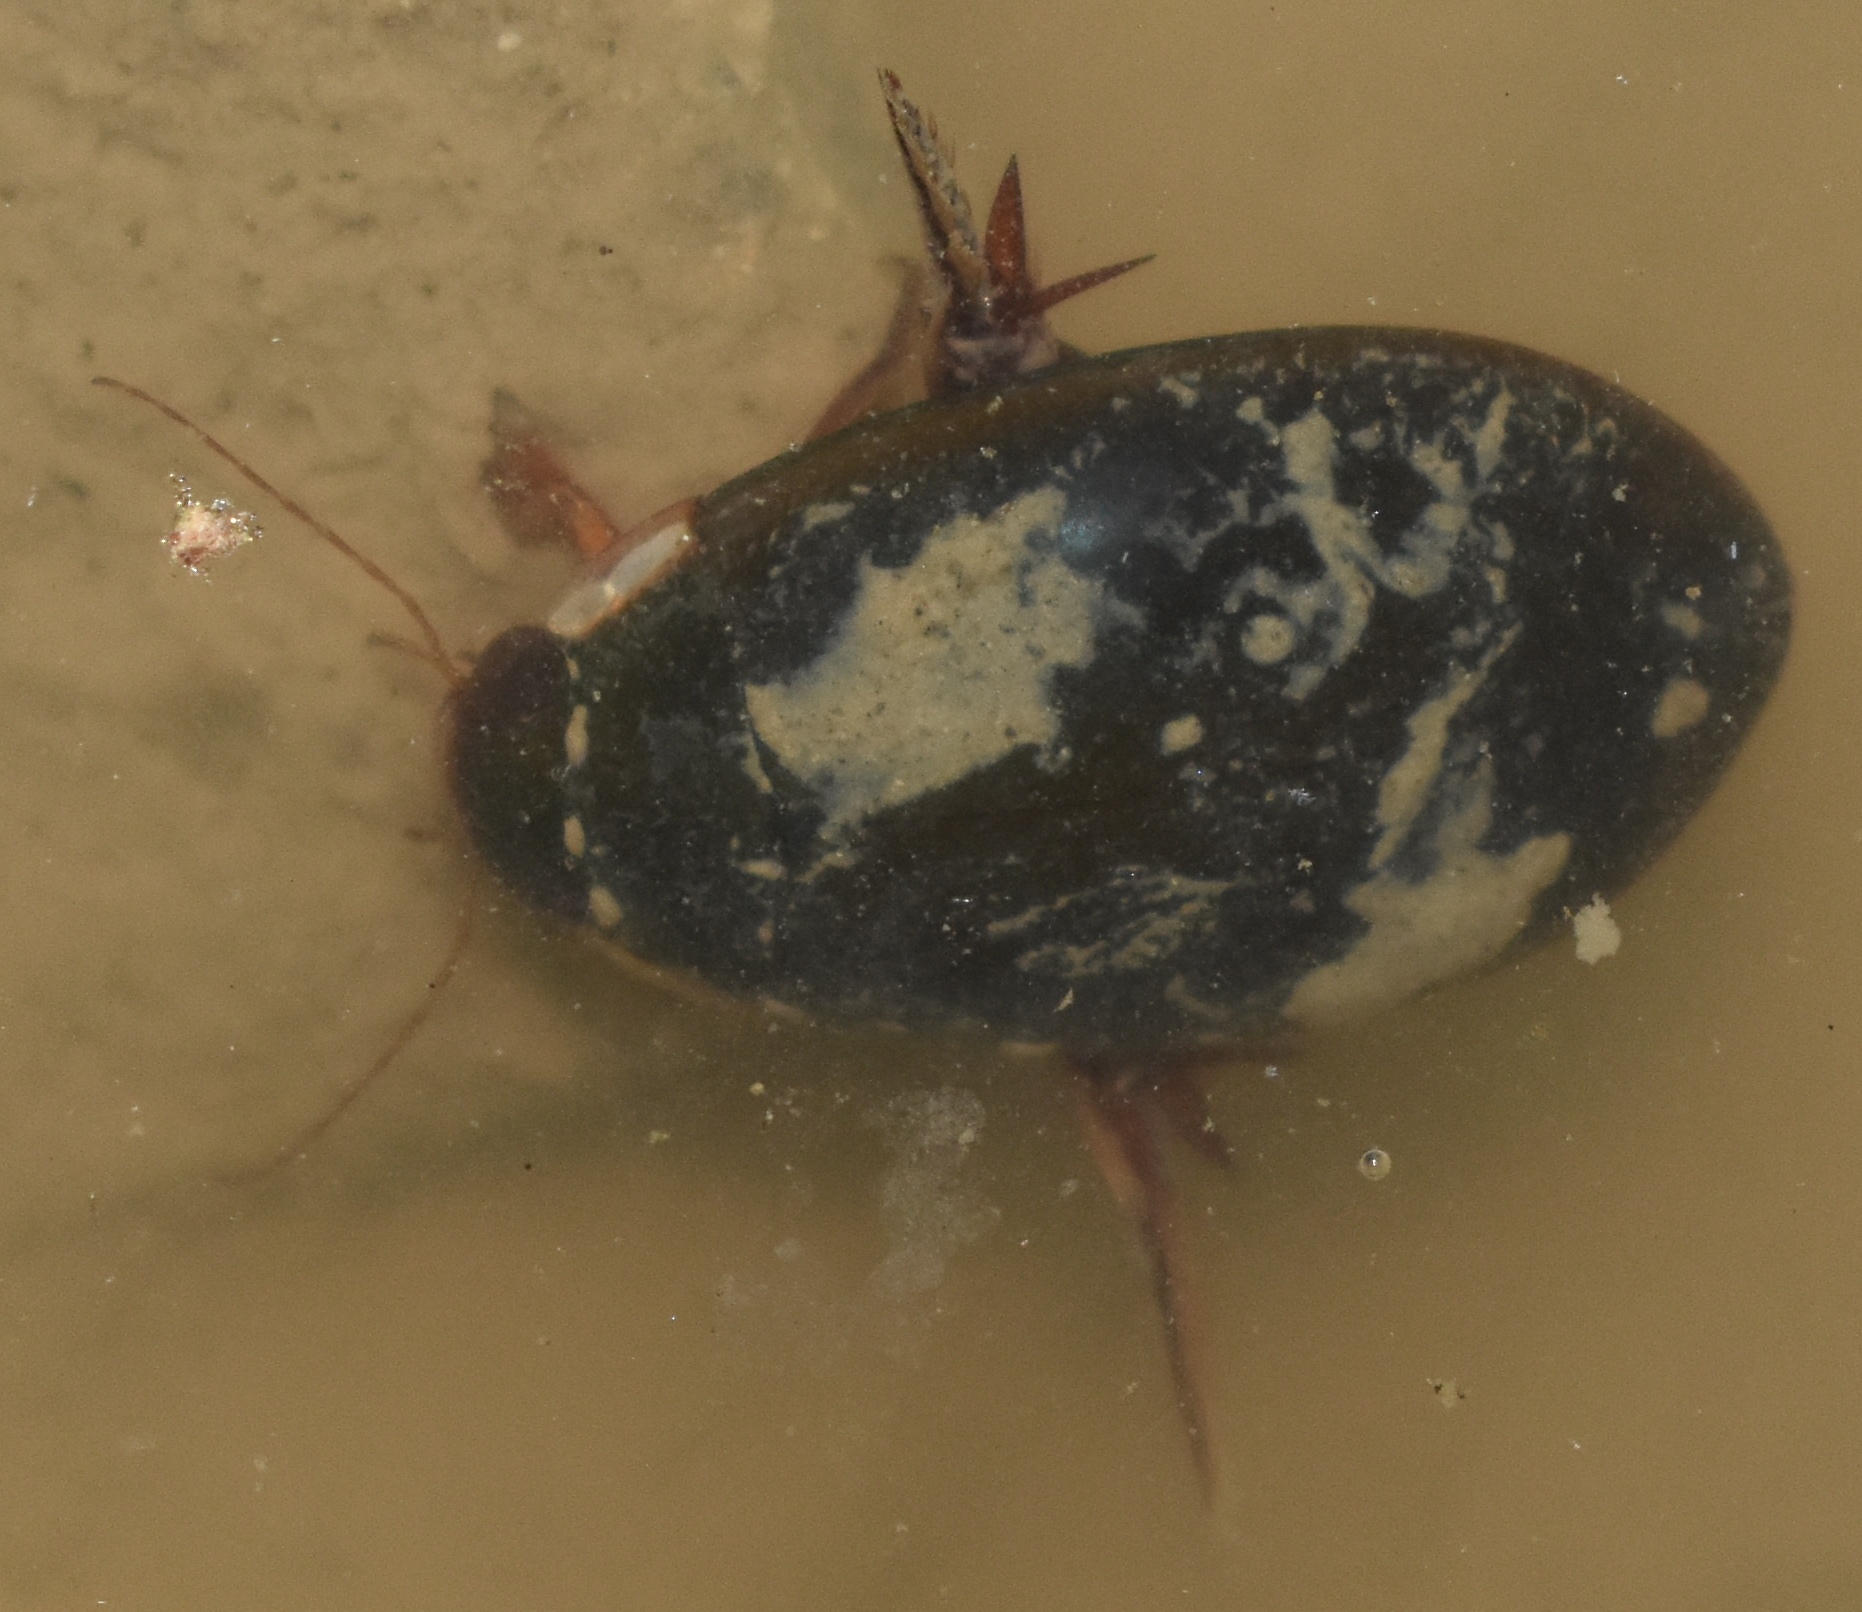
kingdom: Animalia
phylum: Arthropoda
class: Insecta
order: Coleoptera
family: Dytiscidae
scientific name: Dytiscidae
